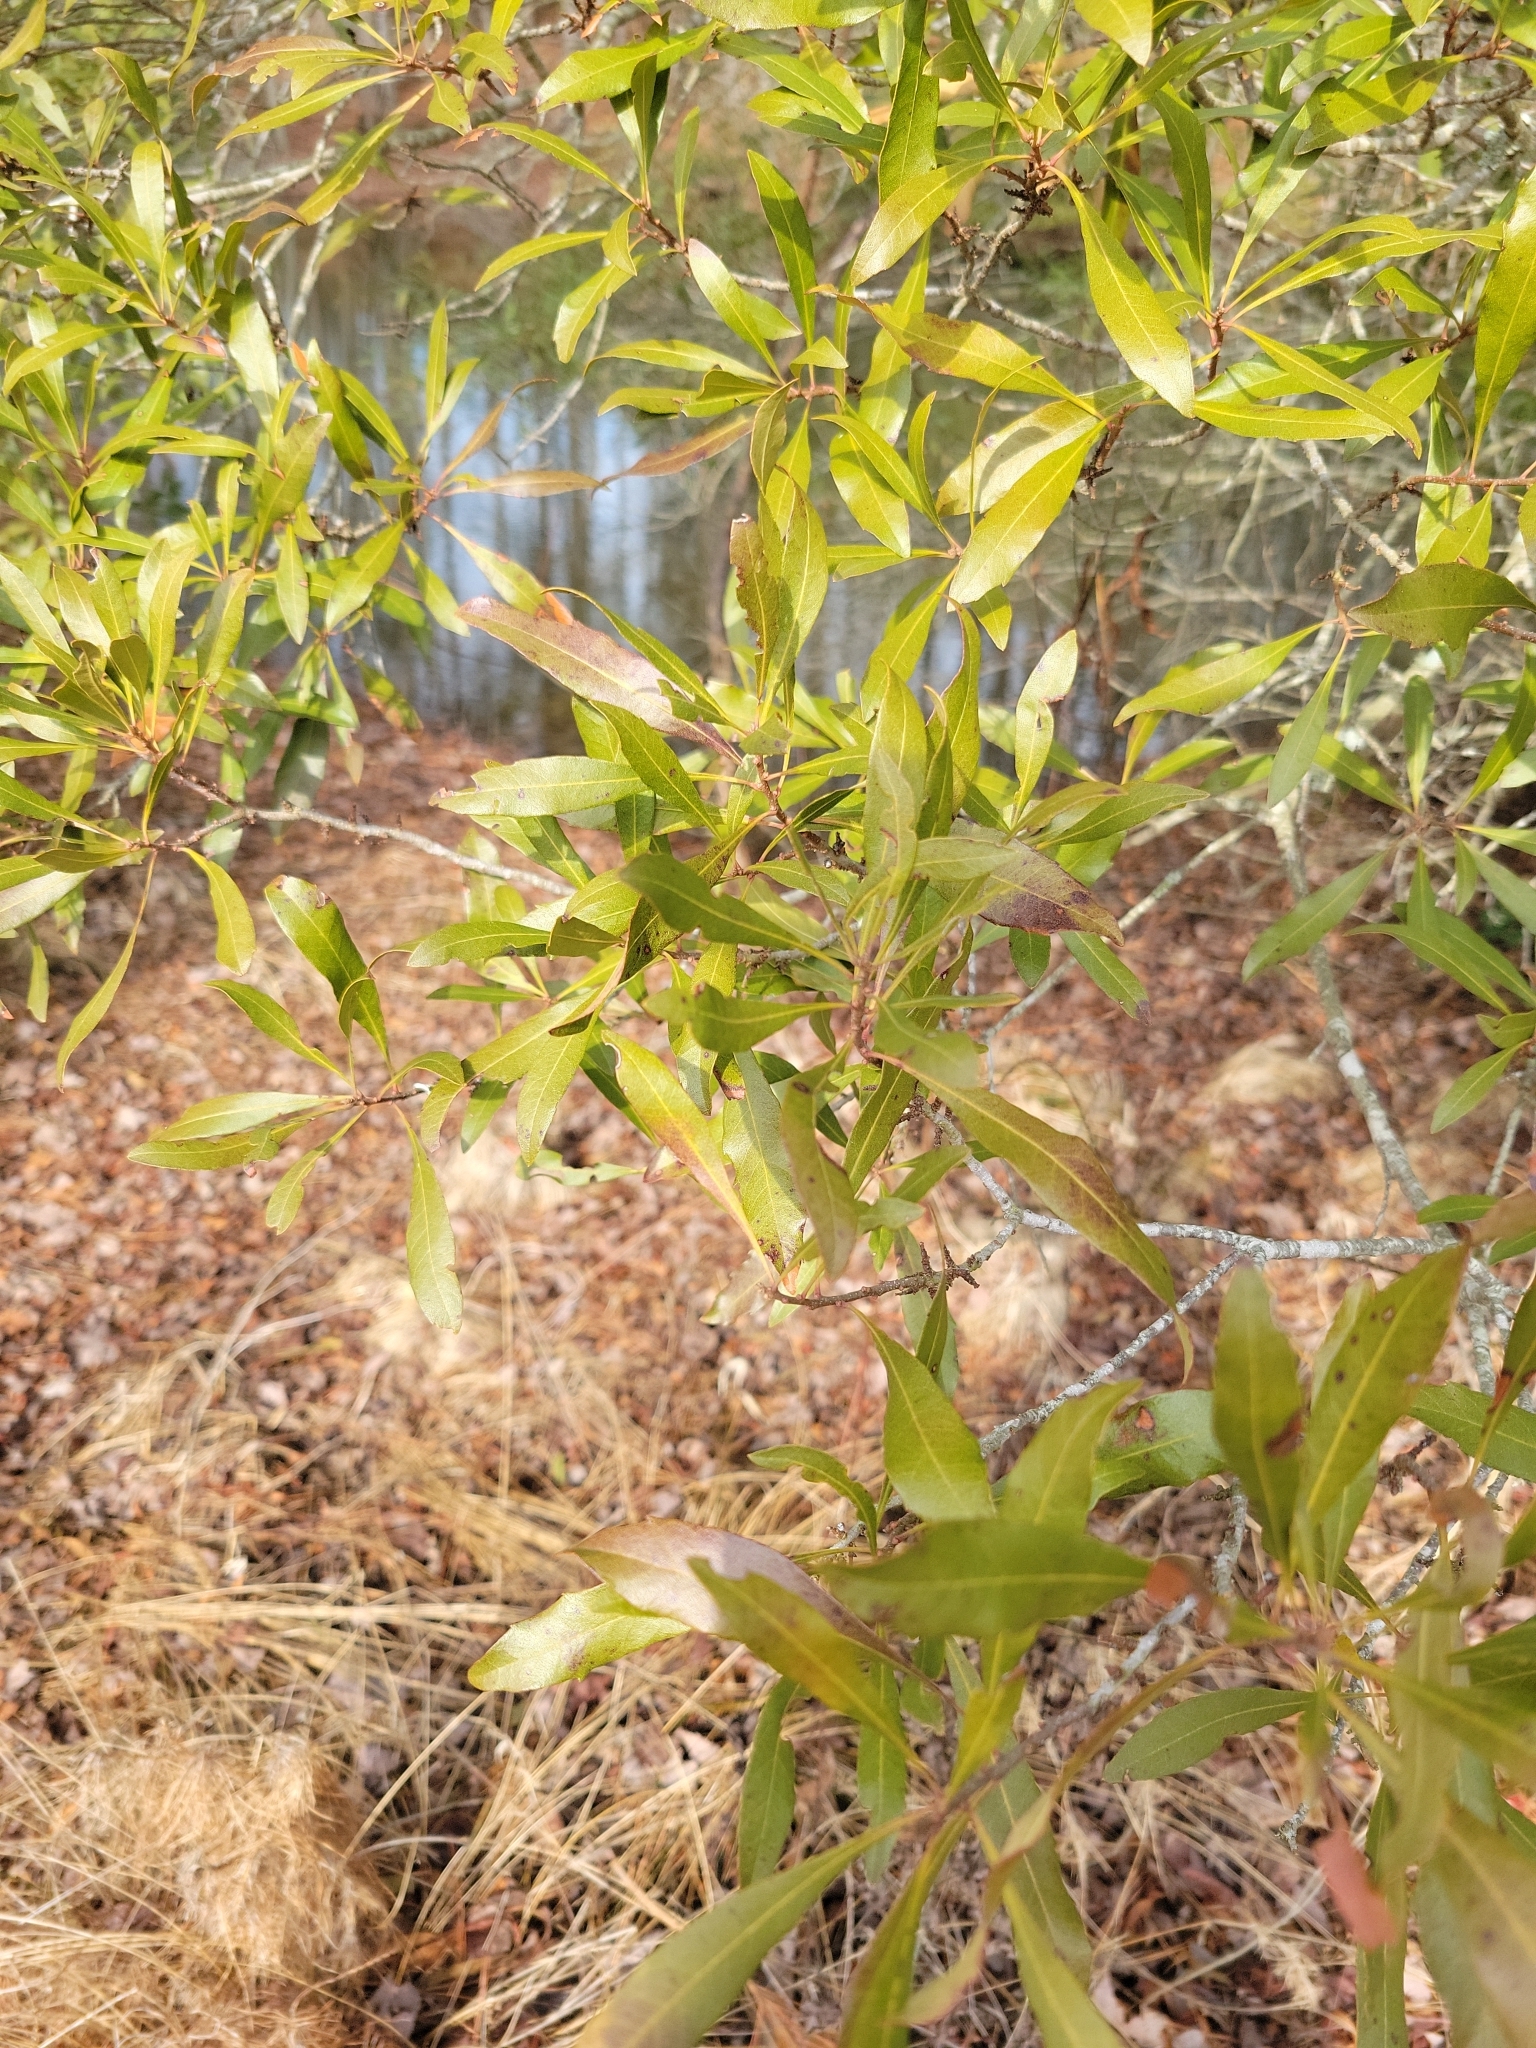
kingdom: Plantae
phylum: Tracheophyta
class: Magnoliopsida
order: Fagales
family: Myricaceae
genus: Morella
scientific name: Morella cerifera
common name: Wax myrtle
